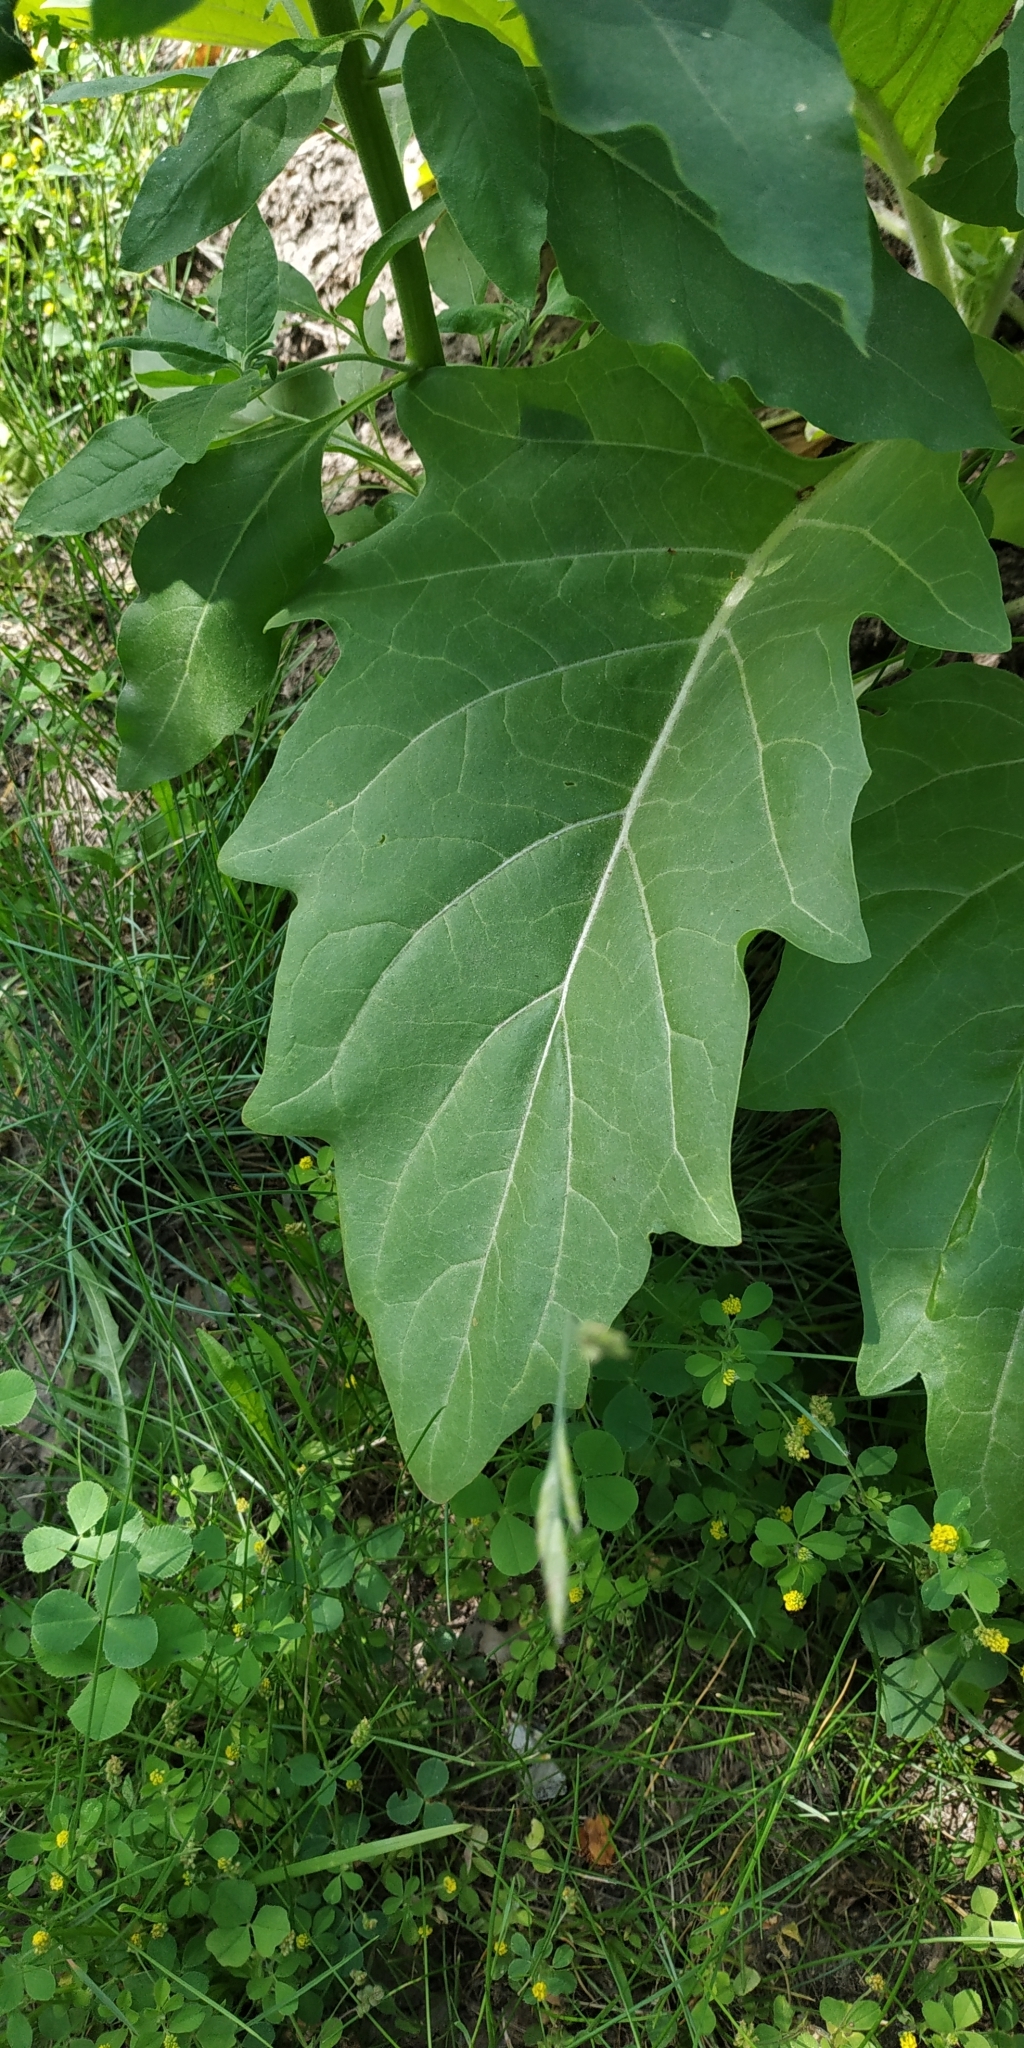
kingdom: Plantae
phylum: Tracheophyta
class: Magnoliopsida
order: Solanales
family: Solanaceae
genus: Solanum
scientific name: Solanum nigrum
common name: Black nightshade
